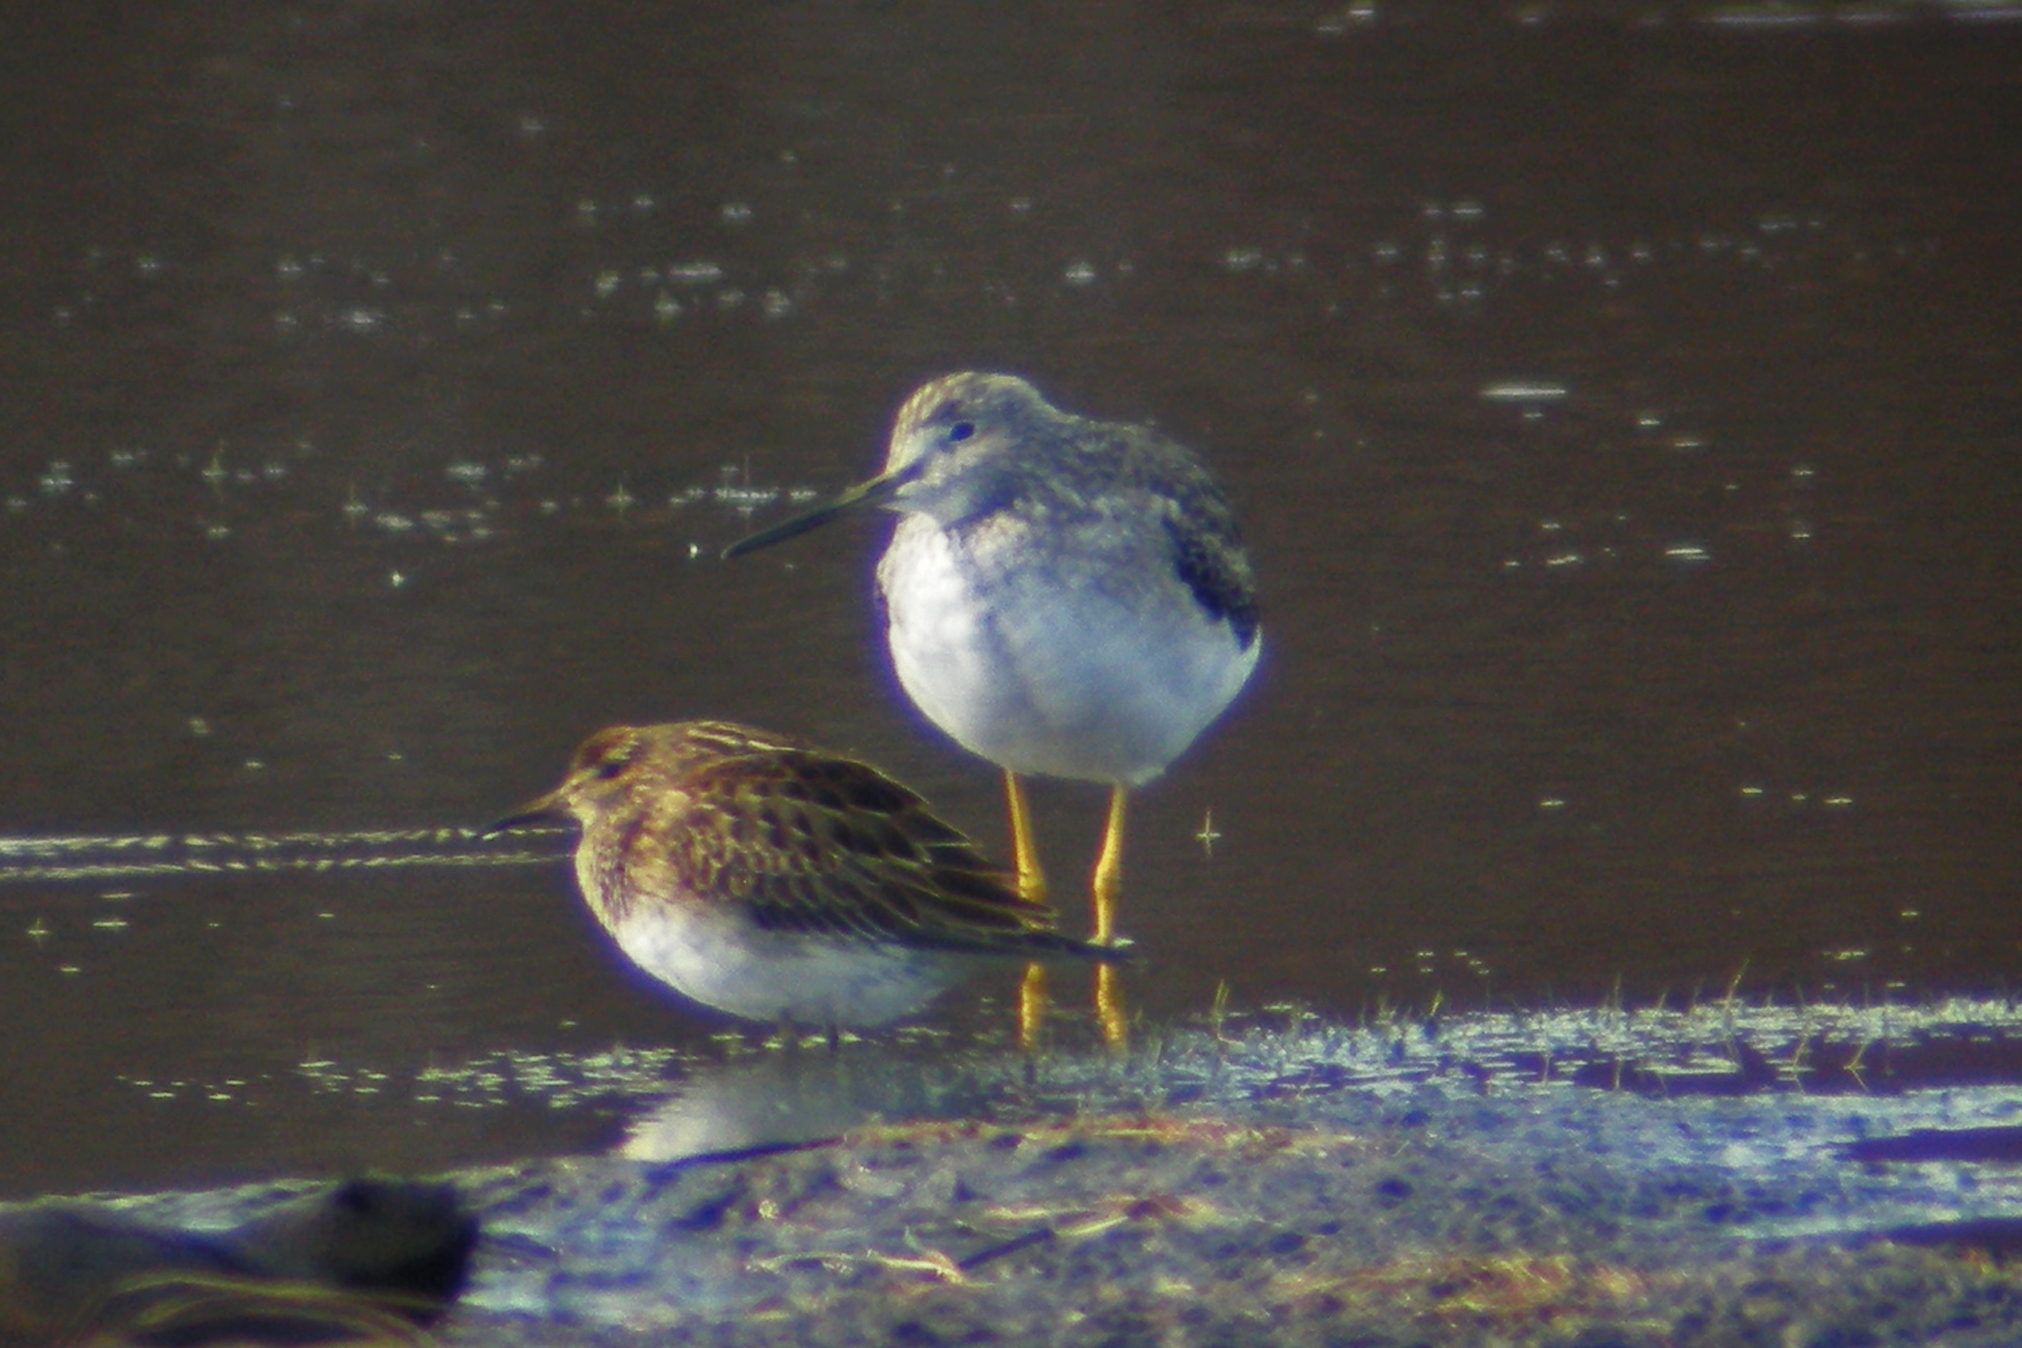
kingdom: Animalia
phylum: Chordata
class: Aves
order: Charadriiformes
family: Scolopacidae
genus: Tringa
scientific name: Tringa melanoleuca
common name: Greater yellowlegs
